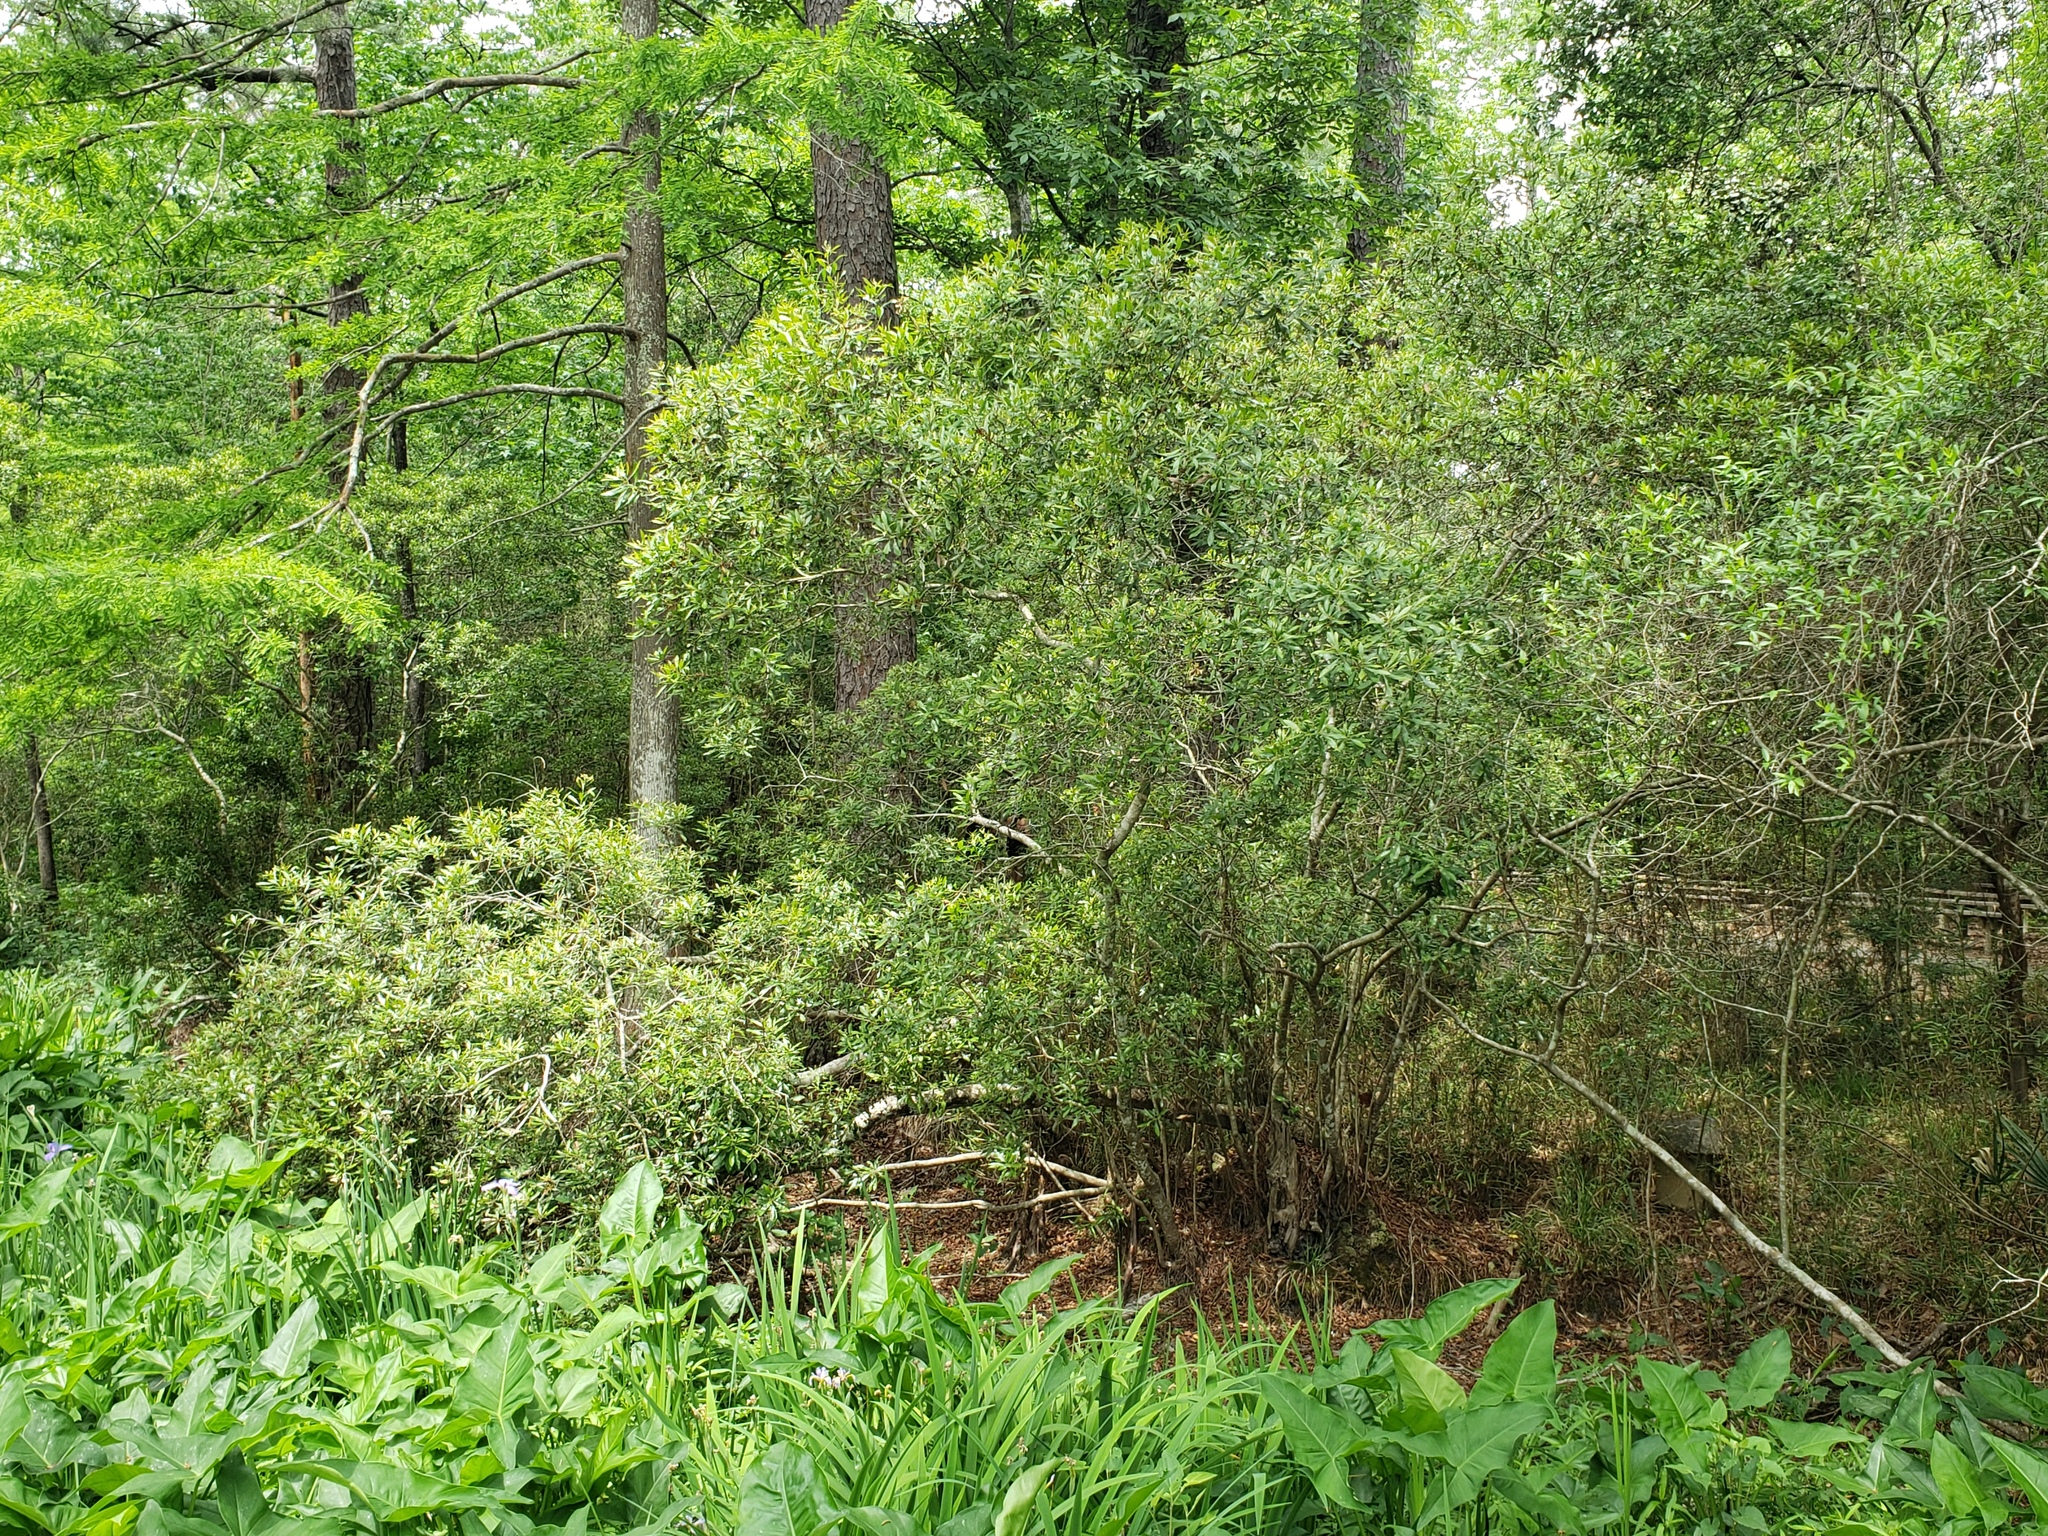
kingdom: Plantae
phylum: Tracheophyta
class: Magnoliopsida
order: Fagales
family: Myricaceae
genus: Morella
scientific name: Morella cerifera
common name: Wax myrtle
